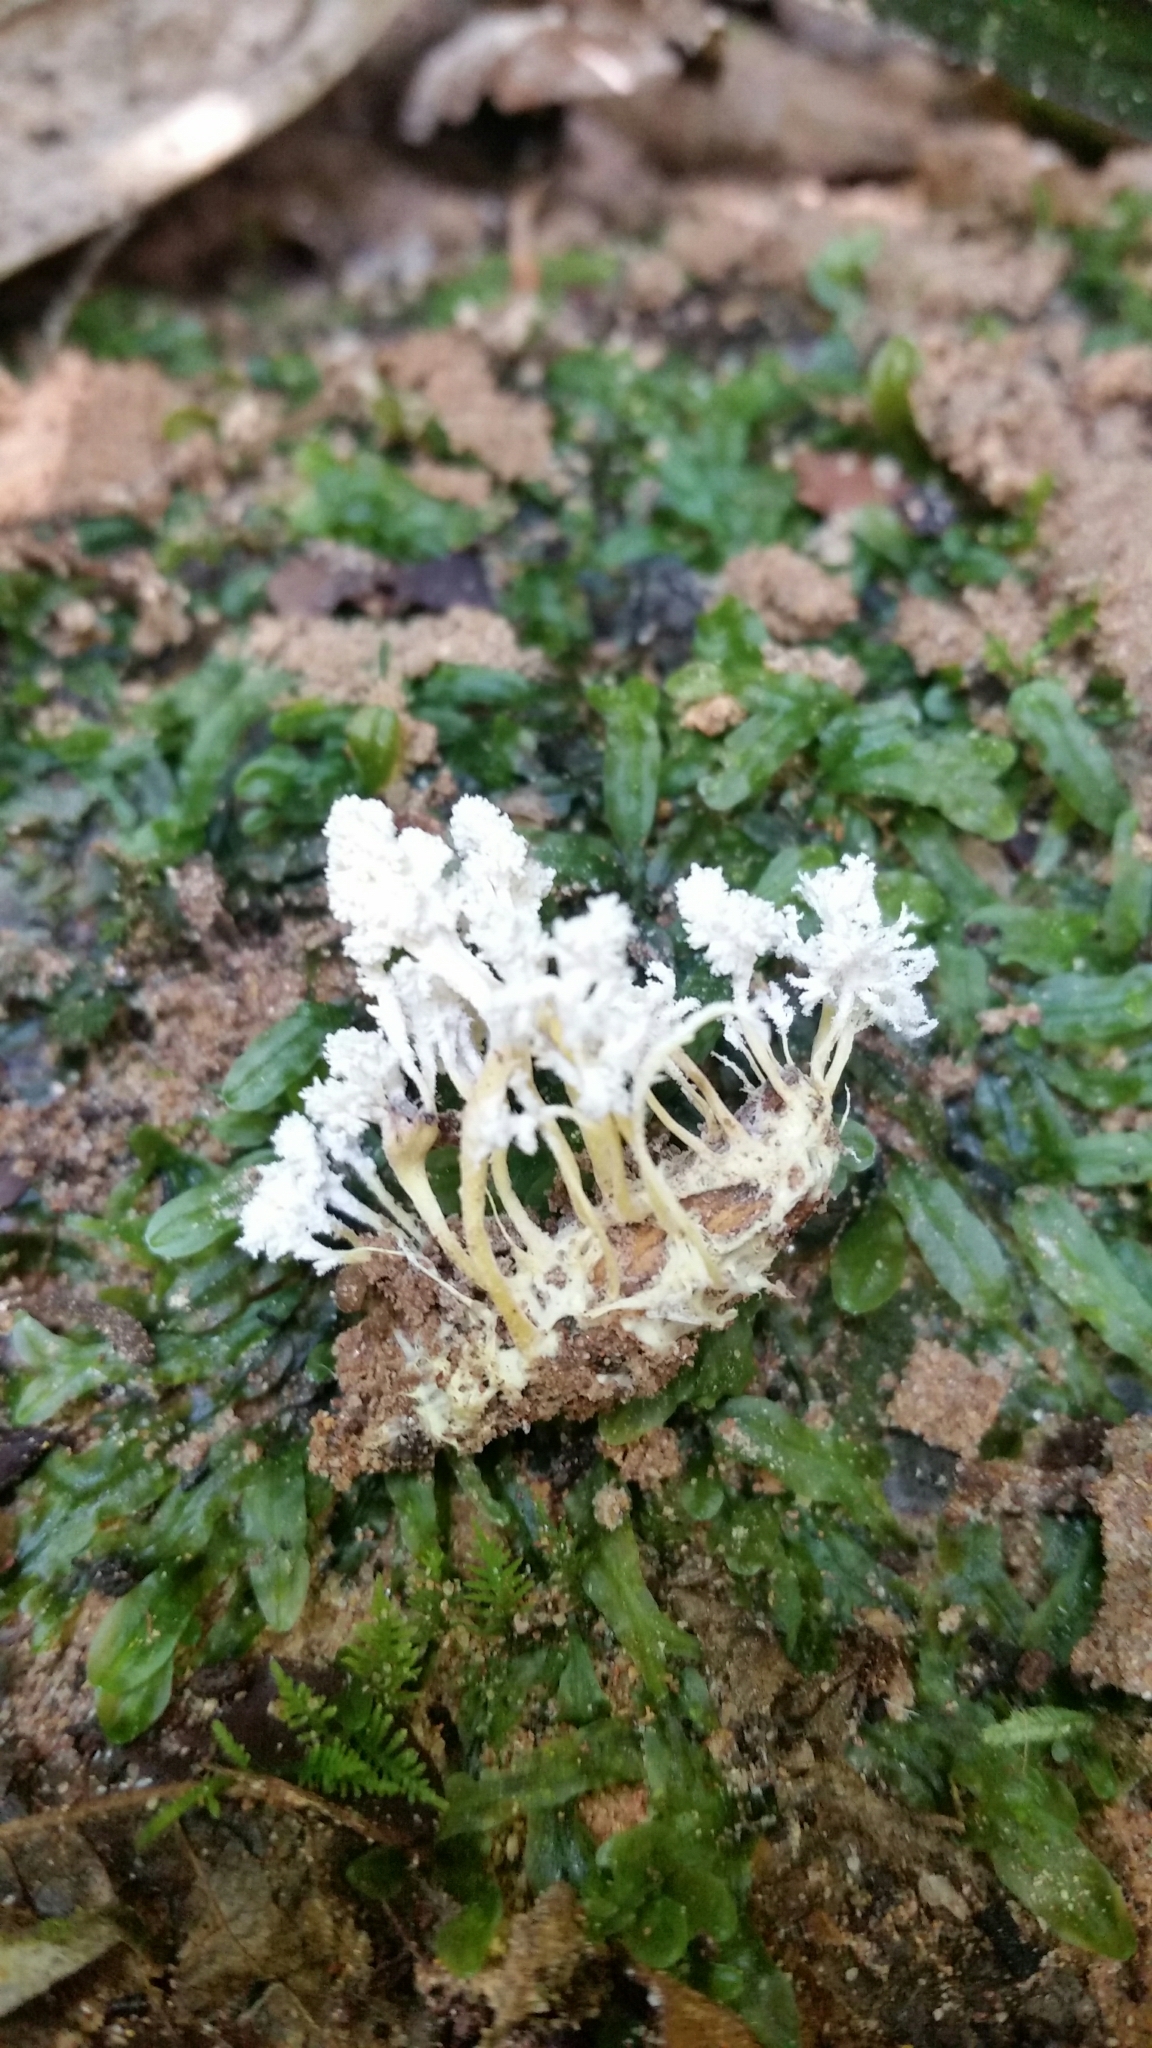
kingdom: Fungi
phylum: Ascomycota
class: Sordariomycetes
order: Hypocreales
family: Cordycipitaceae
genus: Cordyceps
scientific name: Cordyceps tenuipes
